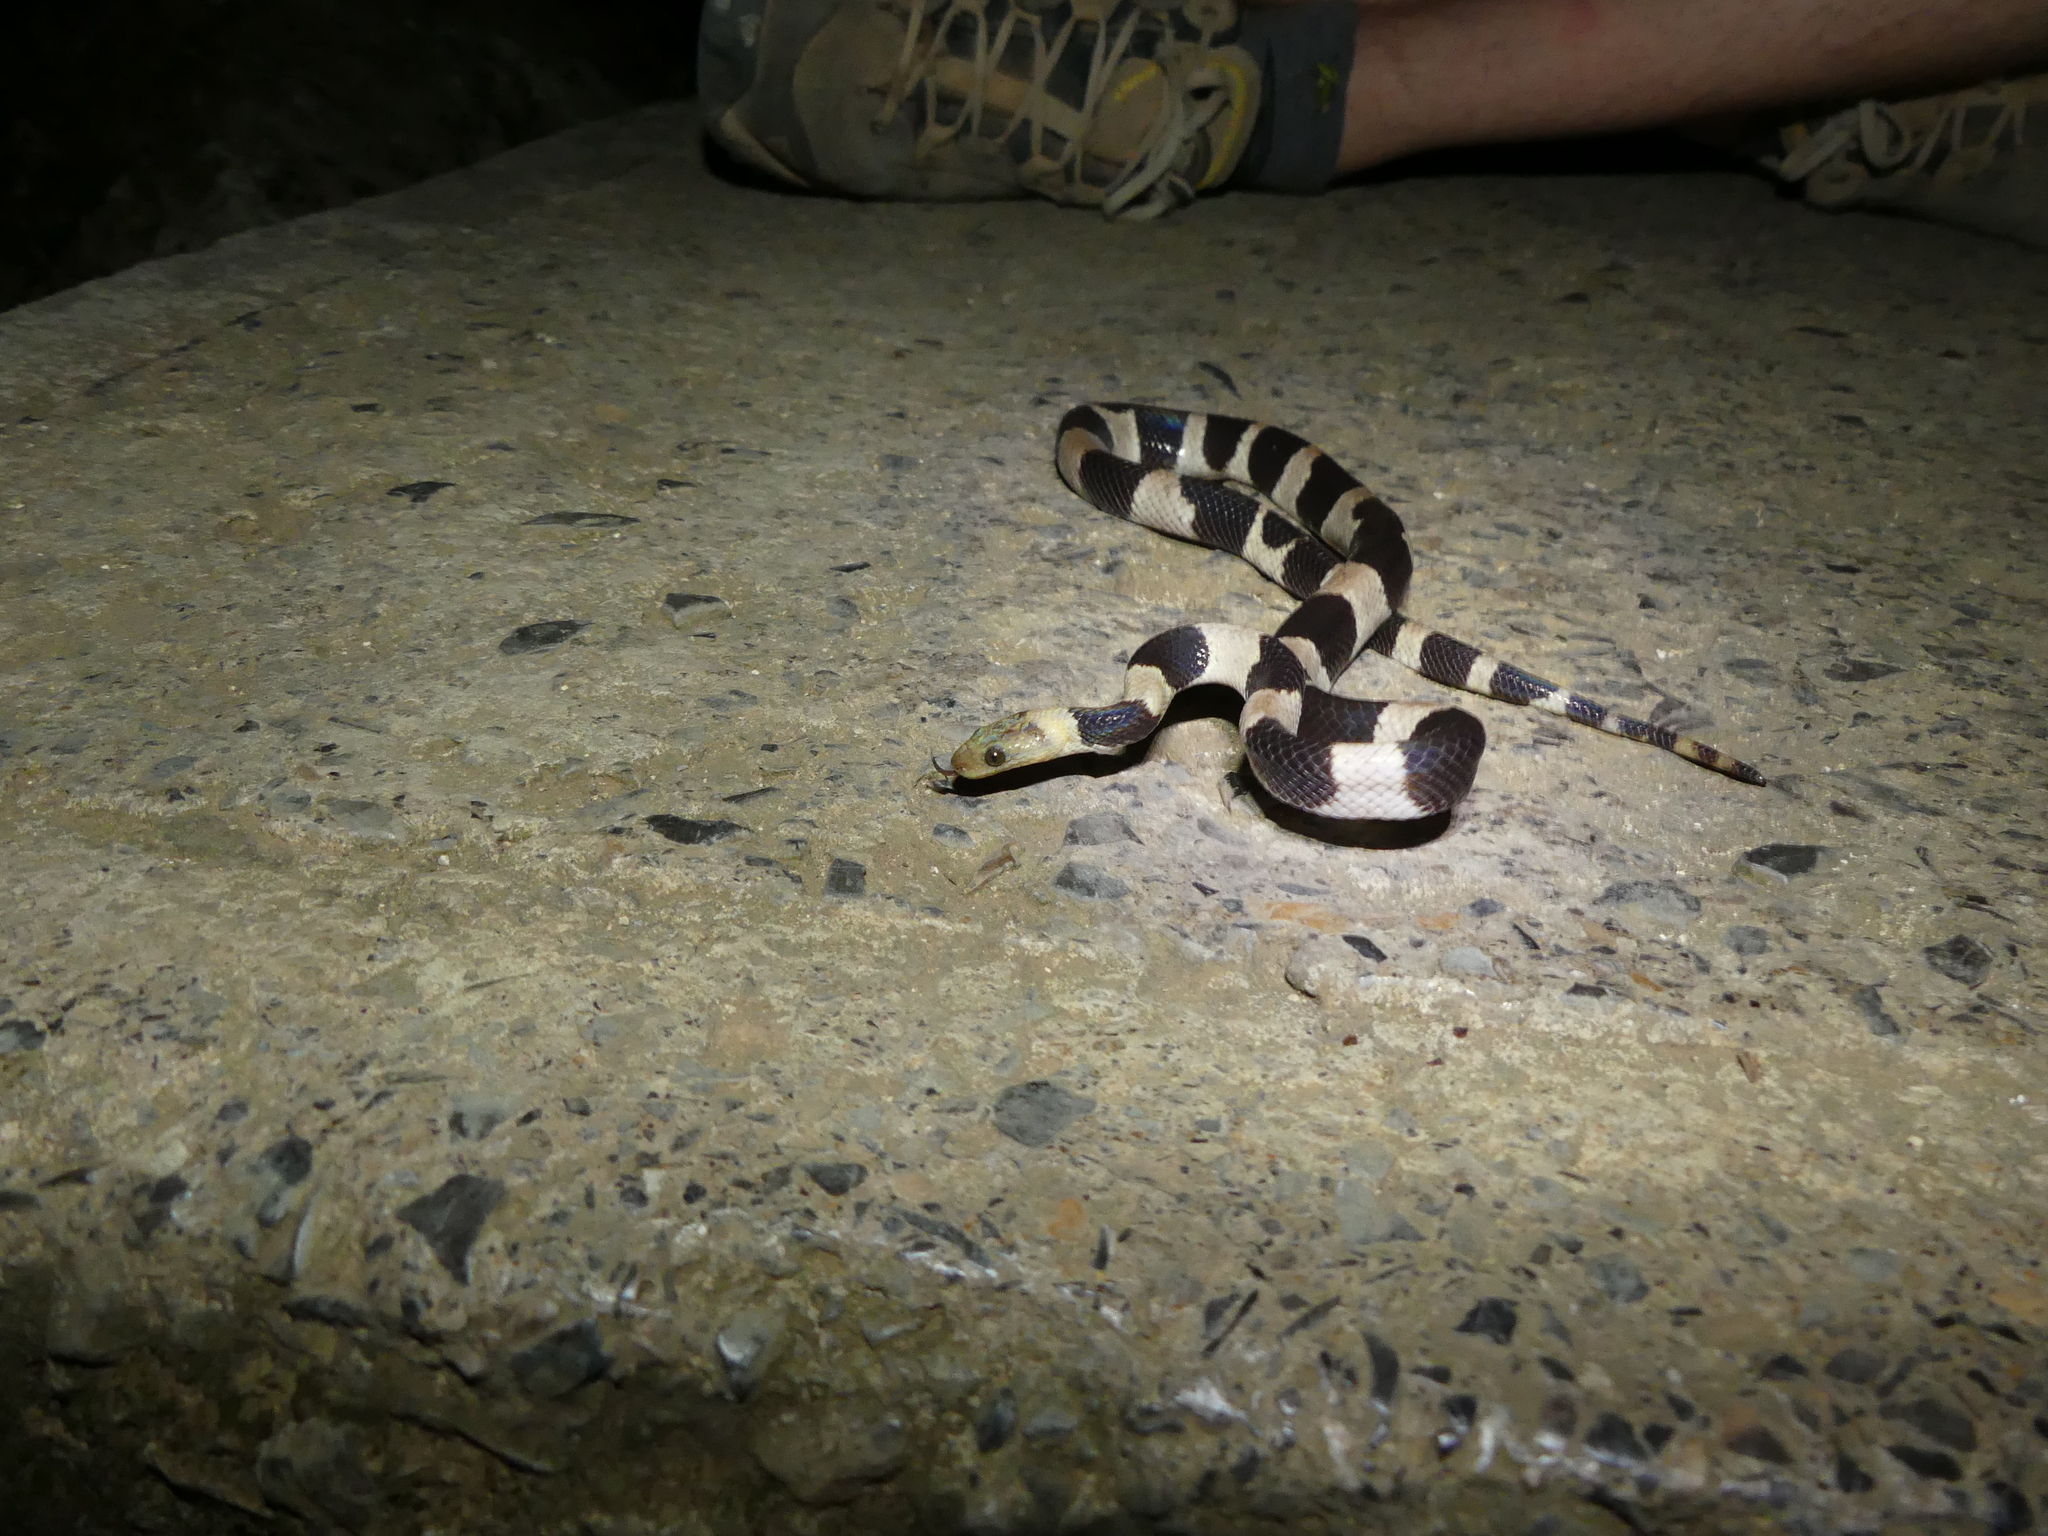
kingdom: Animalia
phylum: Chordata
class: Squamata
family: Tropidophiidae
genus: Tropidophis
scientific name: Tropidophis feicki
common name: Broad-banded trope
